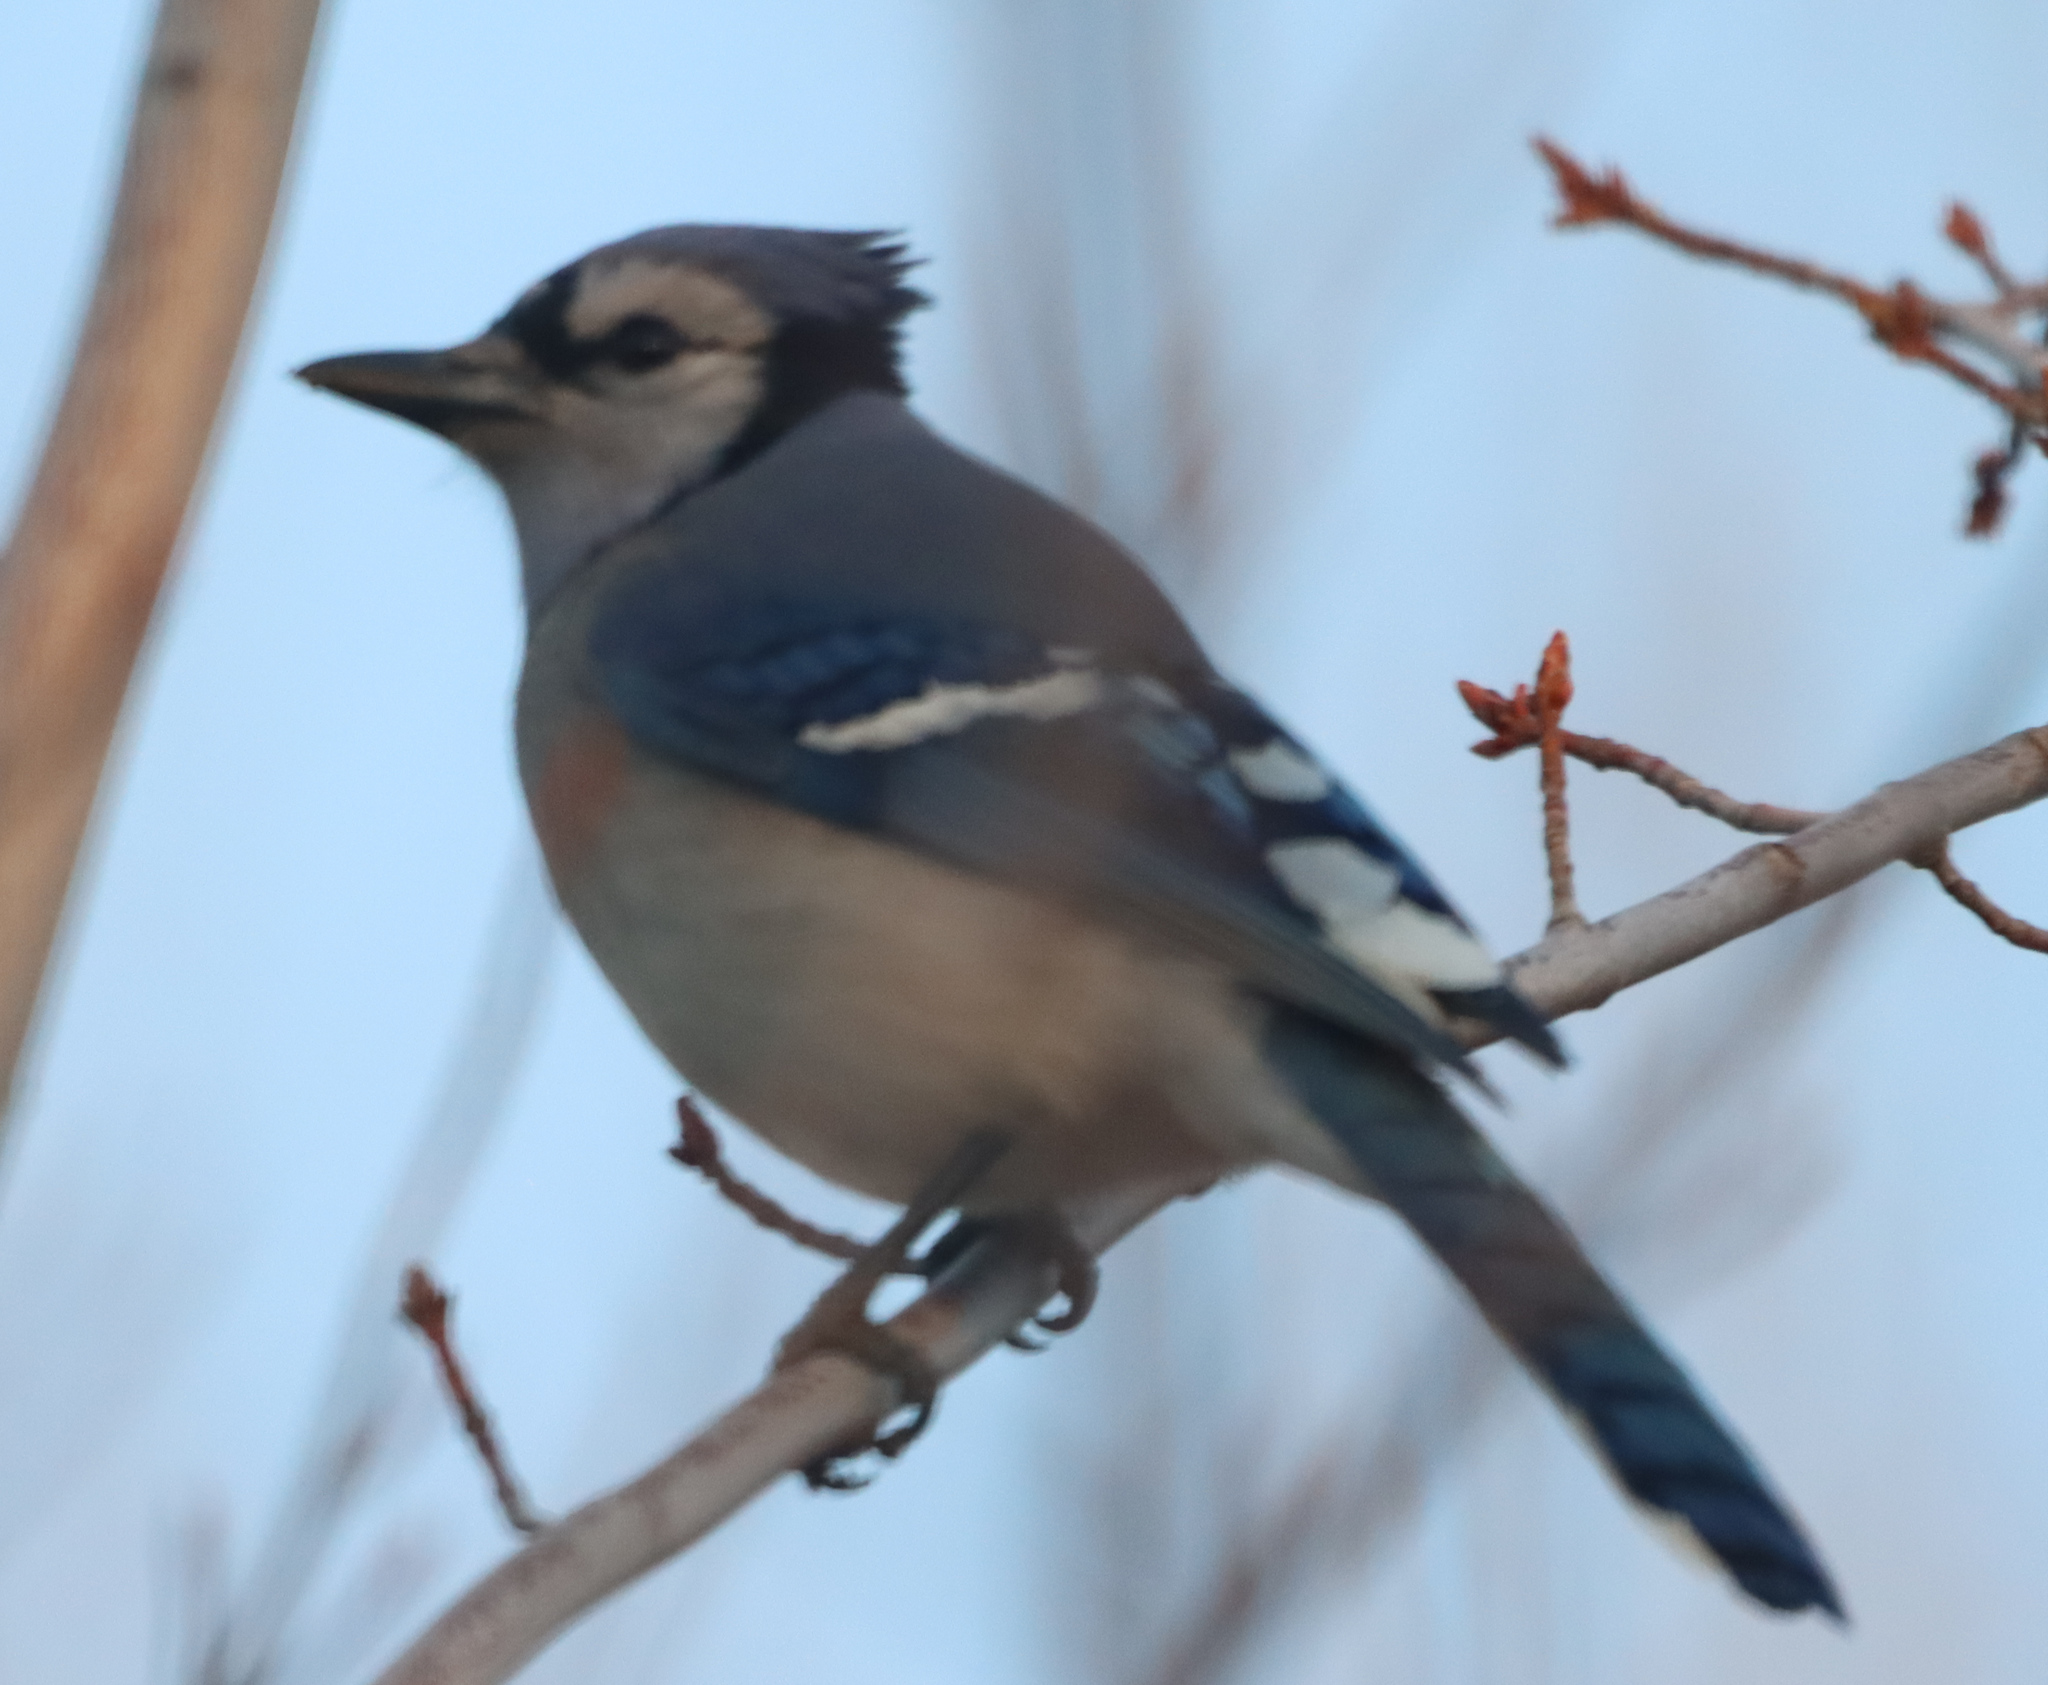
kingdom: Animalia
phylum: Chordata
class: Aves
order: Passeriformes
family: Corvidae
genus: Cyanocitta
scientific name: Cyanocitta cristata
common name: Blue jay
